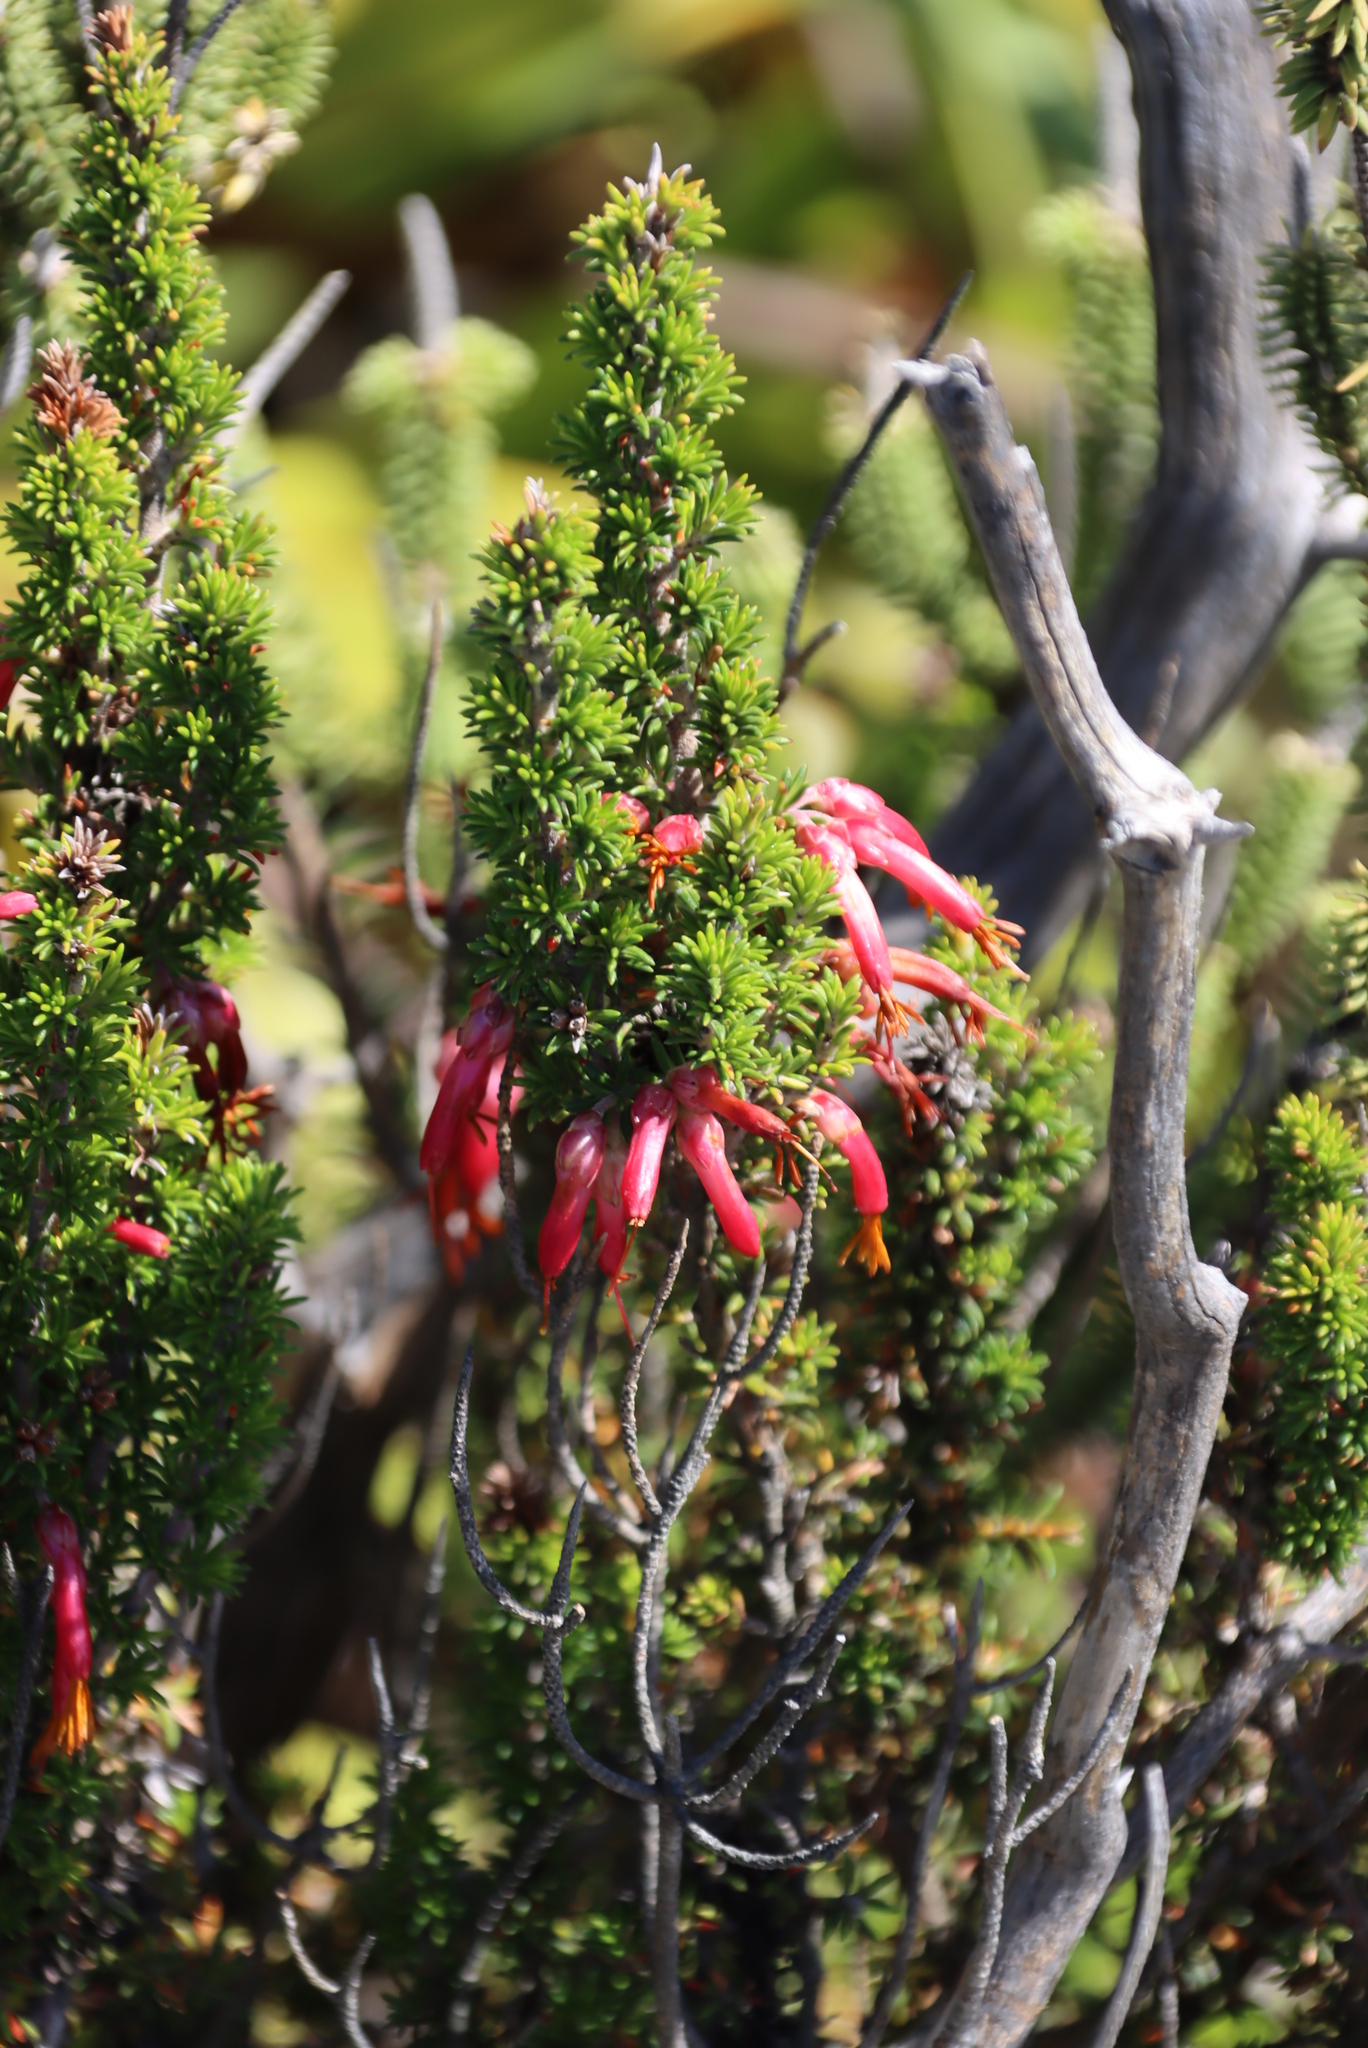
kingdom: Plantae
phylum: Tracheophyta
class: Magnoliopsida
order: Ericales
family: Ericaceae
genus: Erica
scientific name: Erica coccinea
